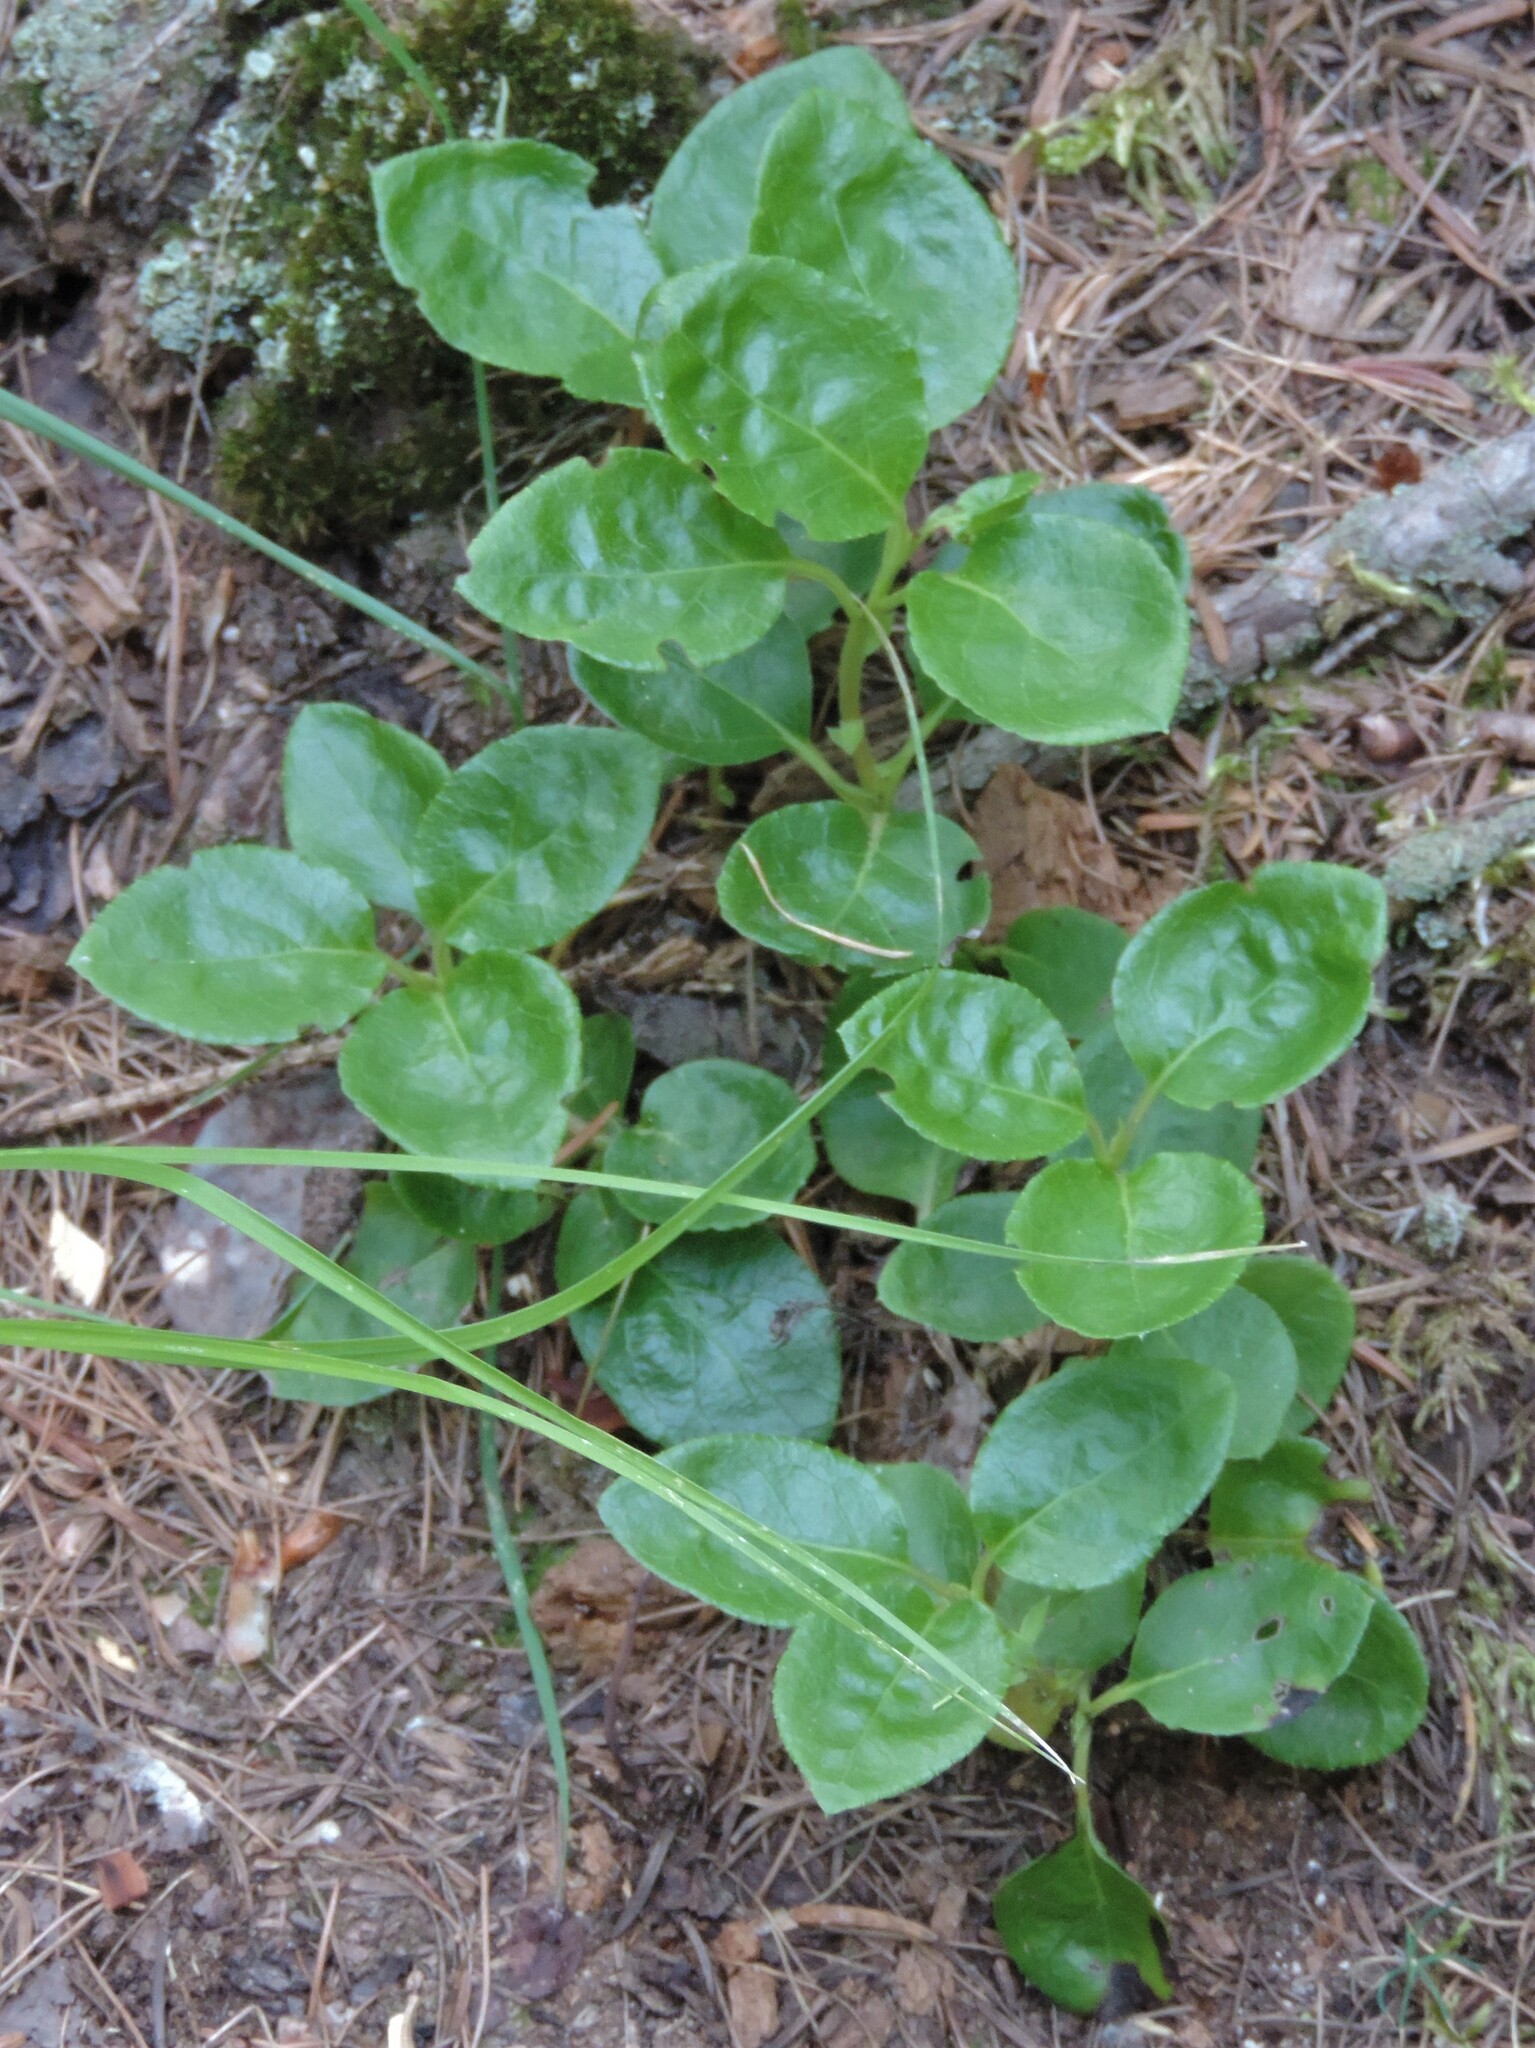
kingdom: Plantae
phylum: Tracheophyta
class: Magnoliopsida
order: Ericales
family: Ericaceae
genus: Orthilia
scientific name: Orthilia secunda
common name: One-sided orthilia
